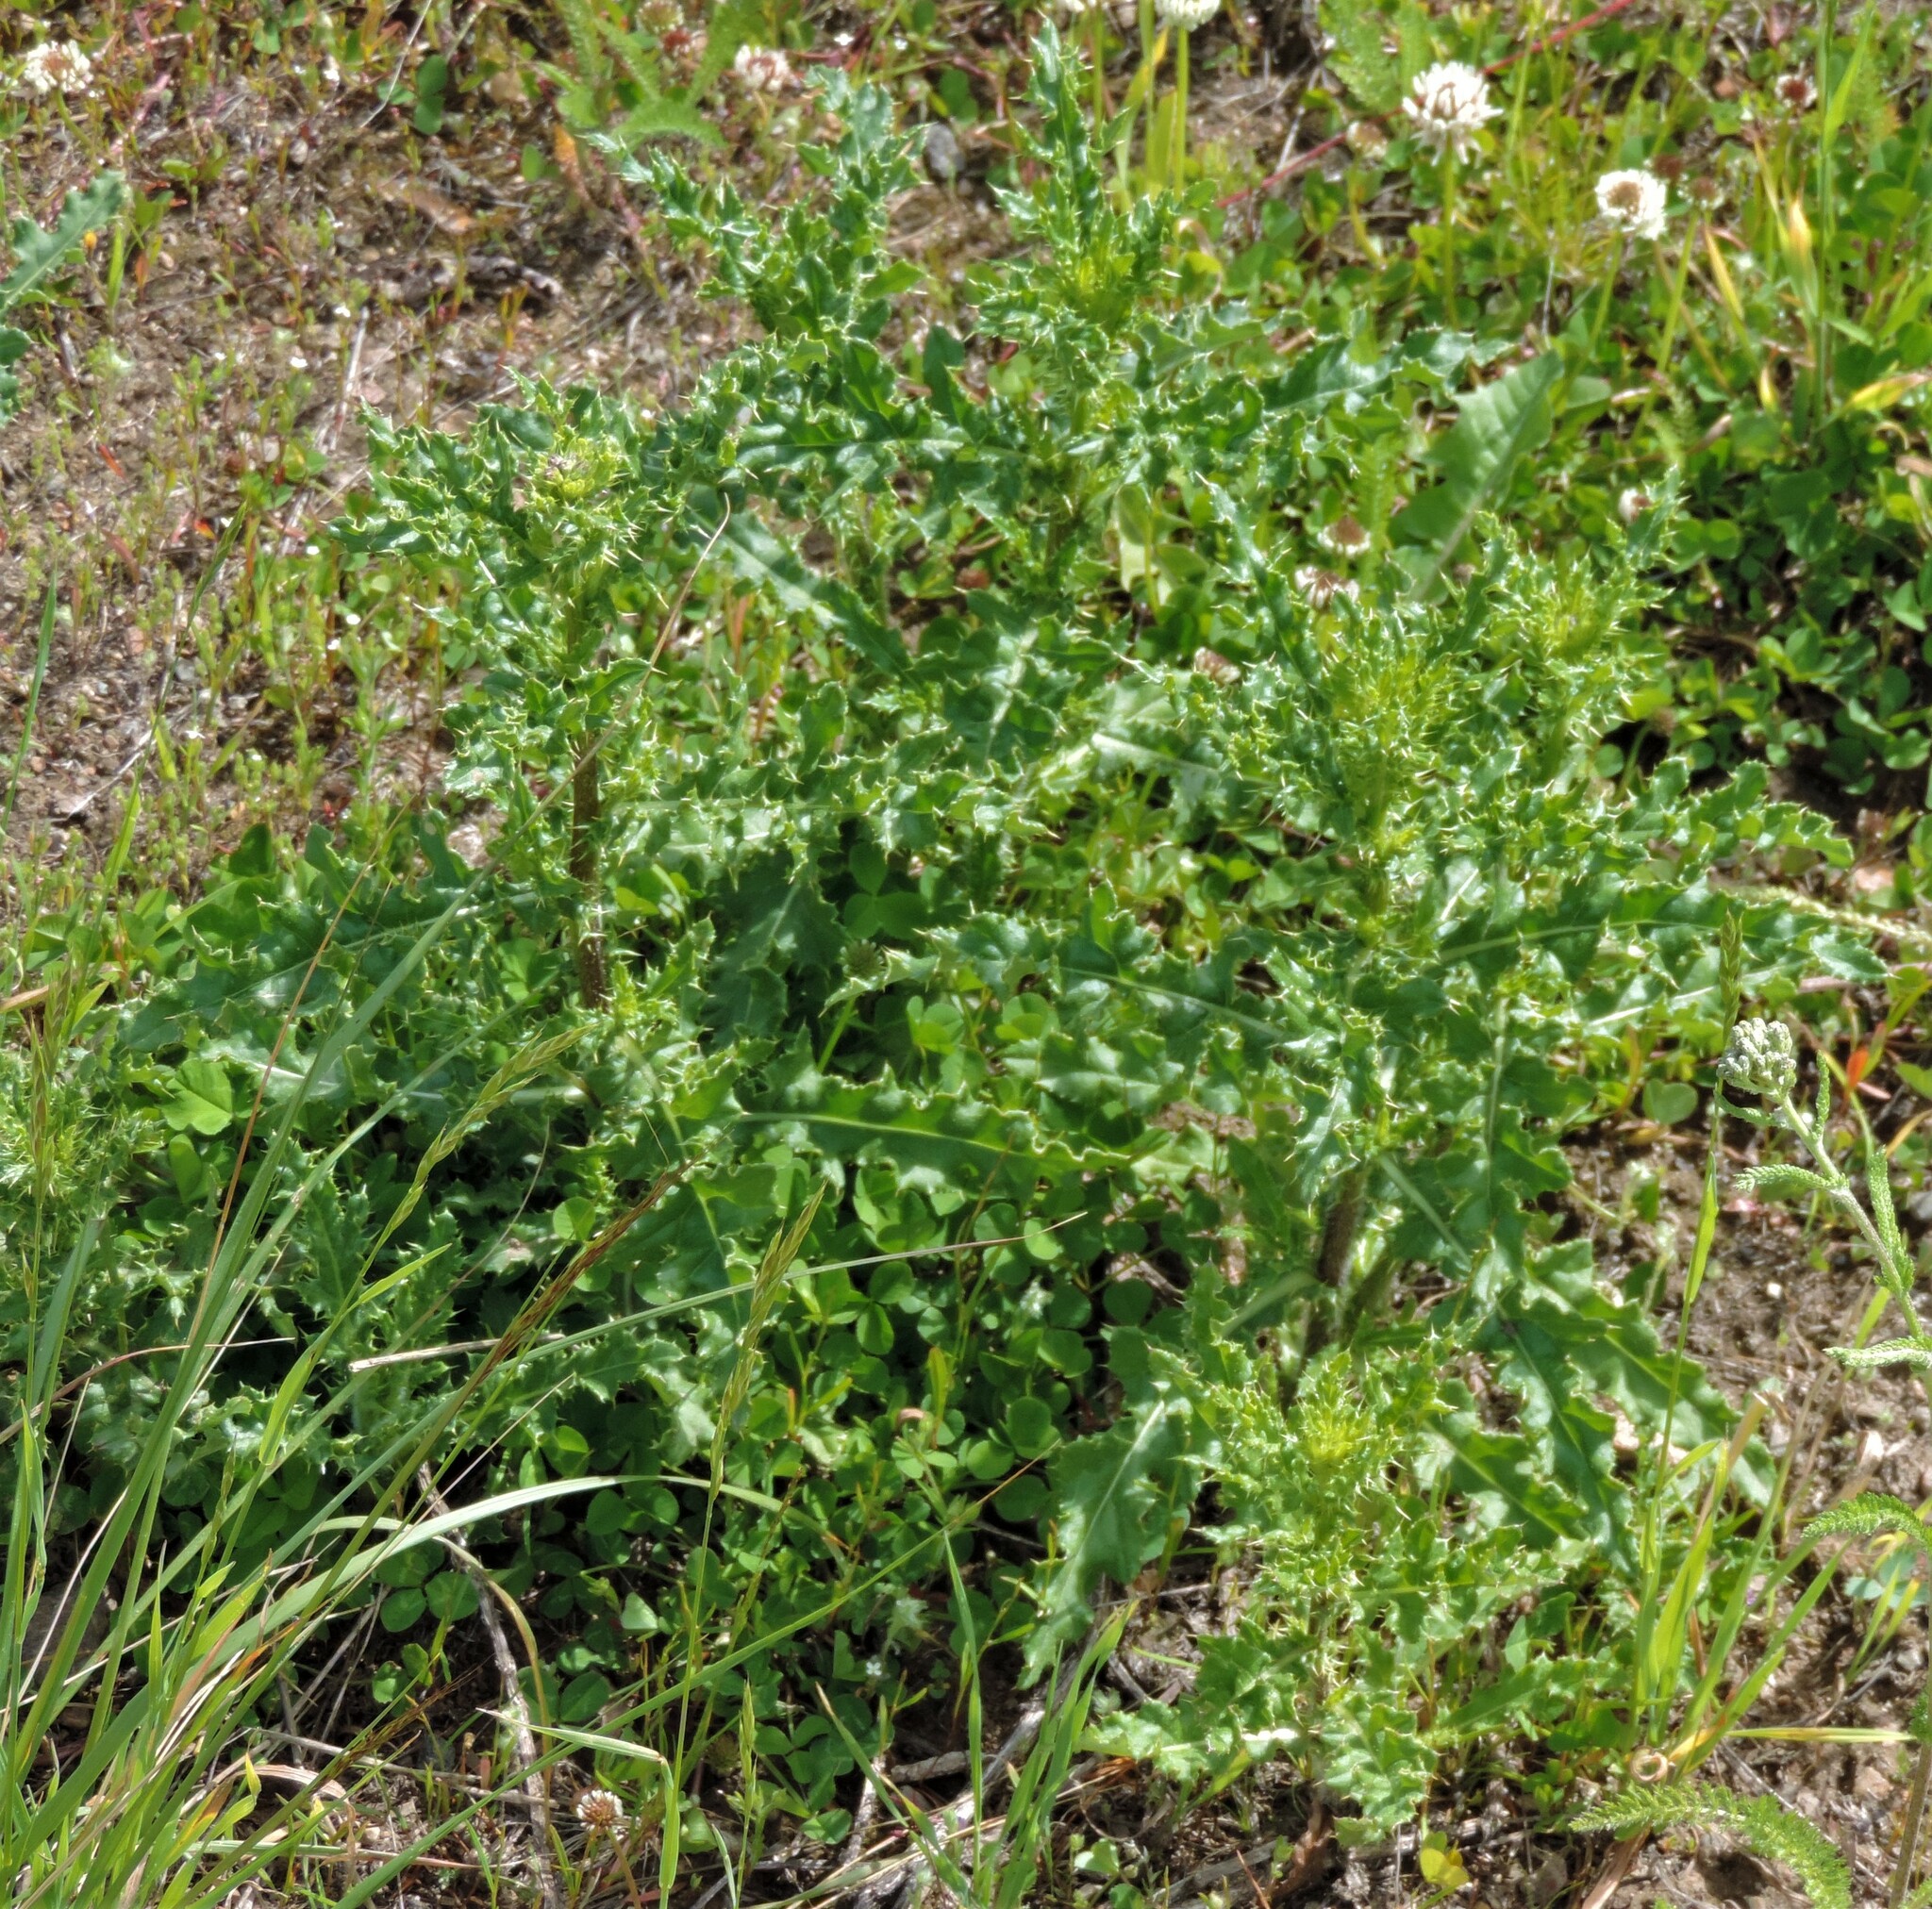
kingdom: Plantae
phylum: Tracheophyta
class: Magnoliopsida
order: Asterales
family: Asteraceae
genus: Cirsium
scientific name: Cirsium arvense
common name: Creeping thistle
